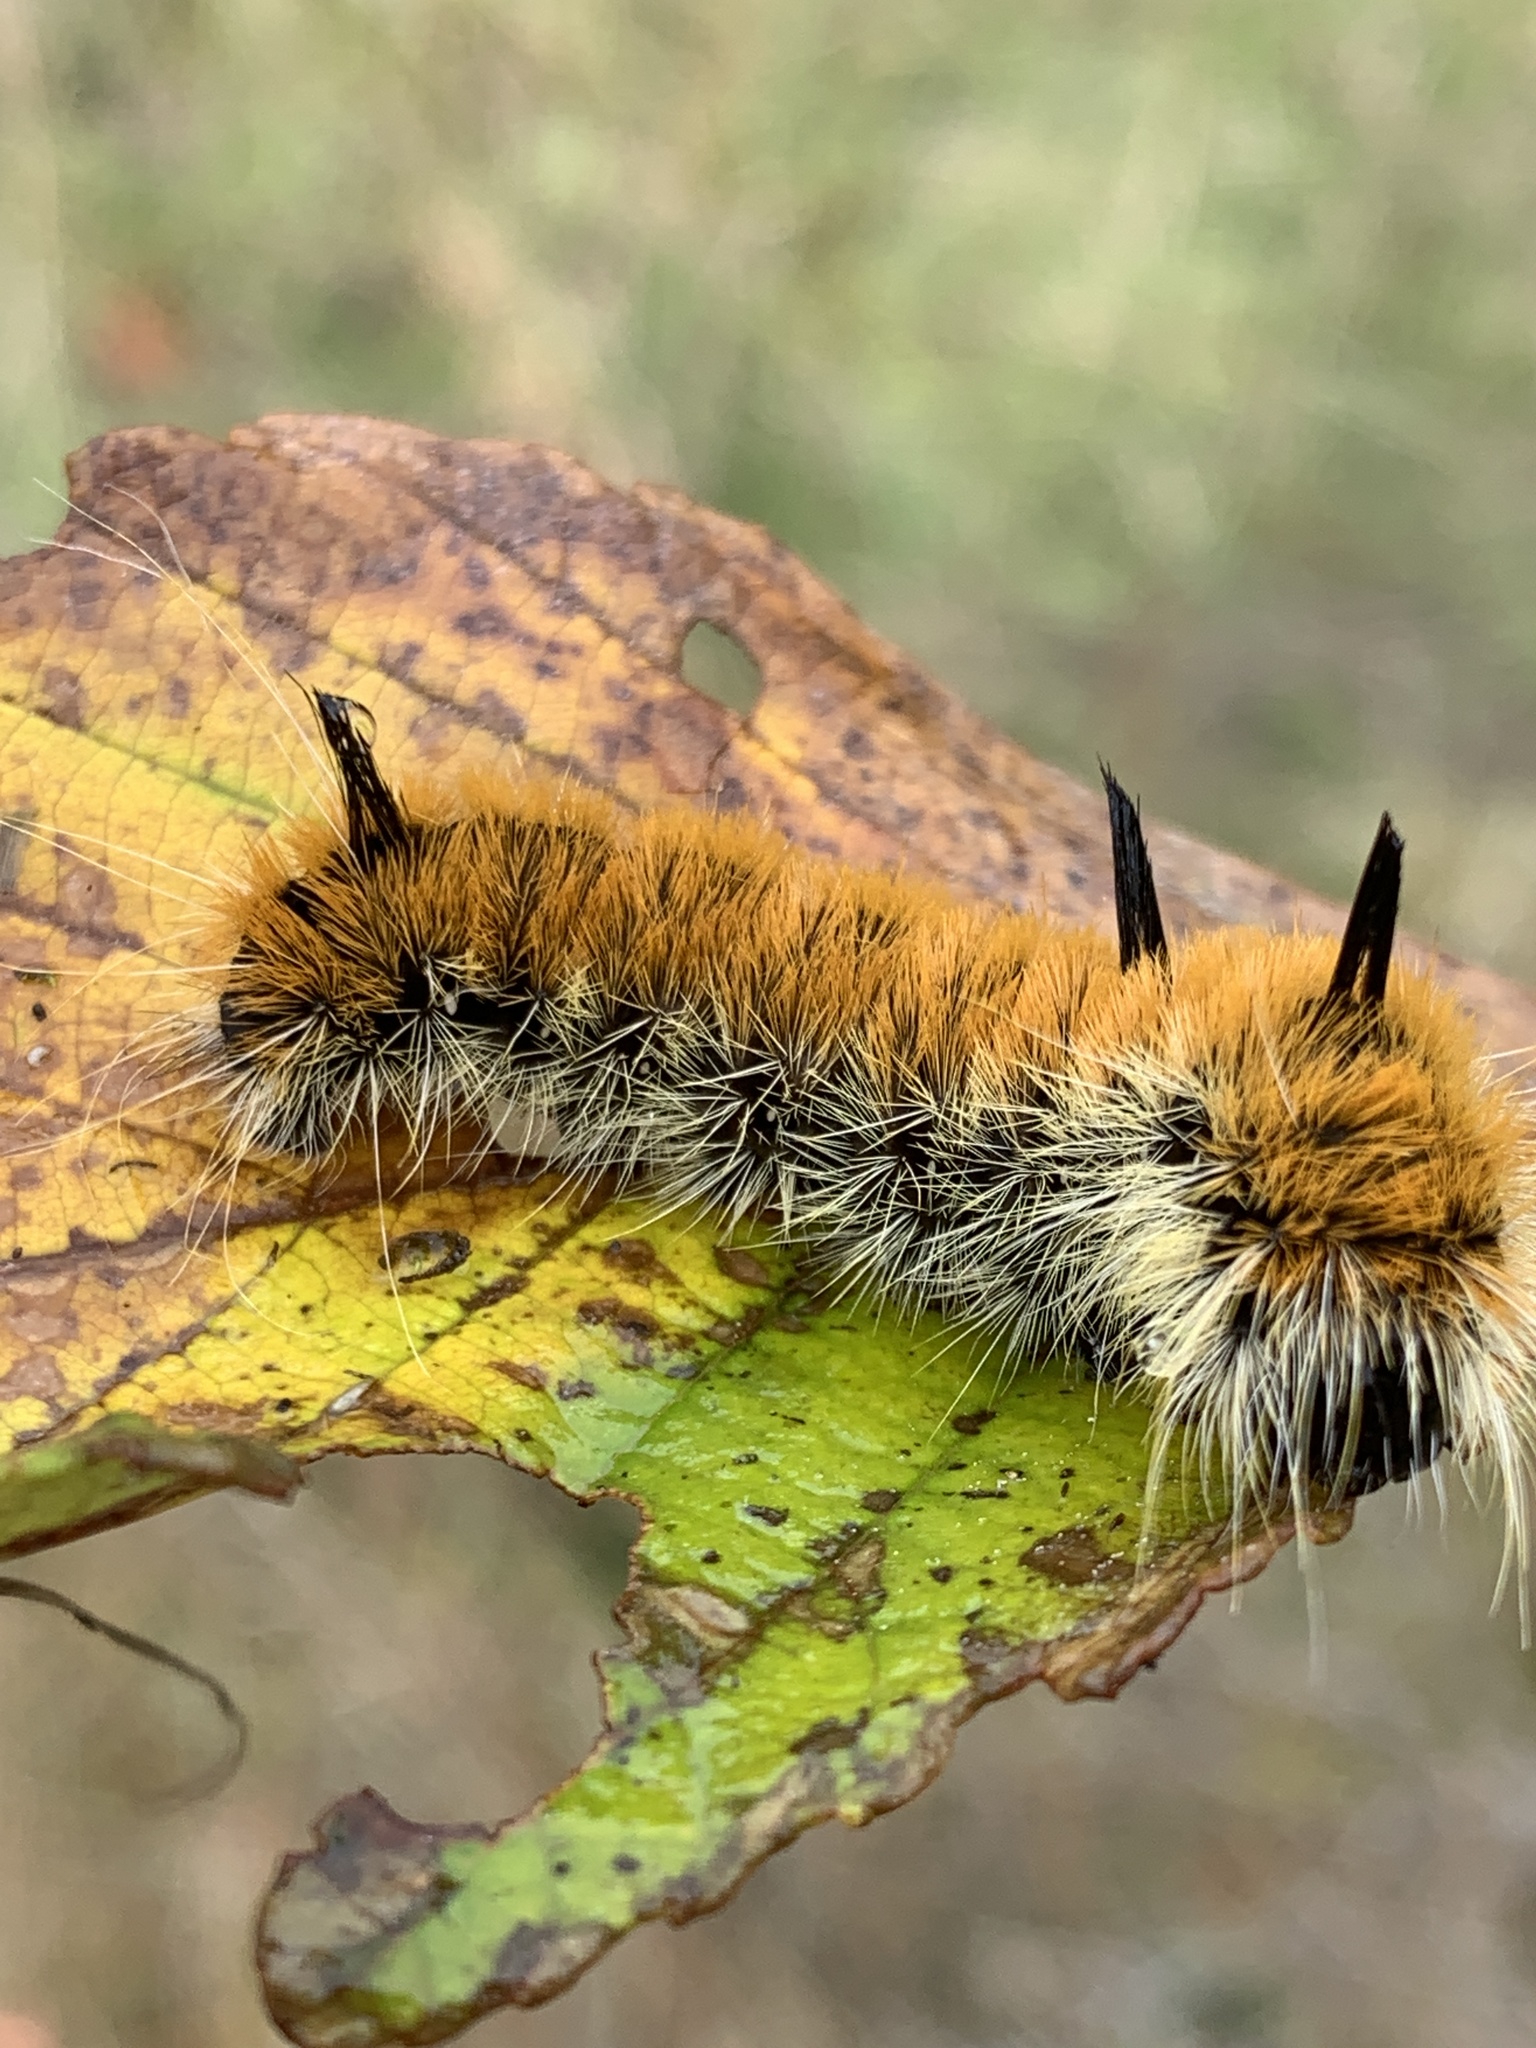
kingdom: Animalia
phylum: Arthropoda
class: Insecta
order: Lepidoptera
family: Noctuidae
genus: Acronicta
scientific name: Acronicta insita
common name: Large gray dagger
